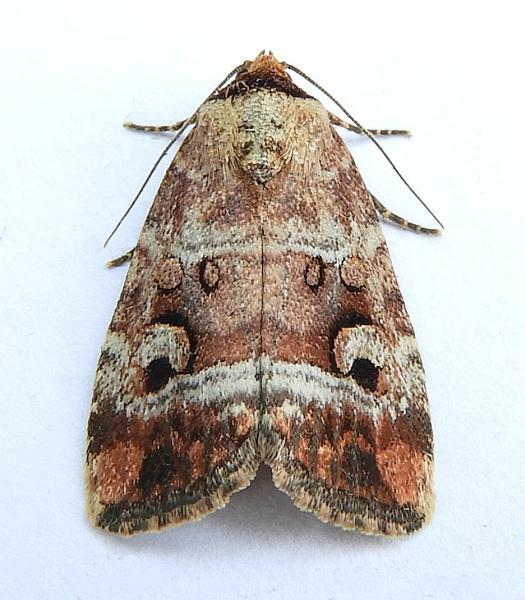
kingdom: Animalia
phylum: Arthropoda
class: Insecta
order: Lepidoptera
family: Noctuidae
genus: Elaphria
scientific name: Elaphria alapallida
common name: Pale-winged midget
